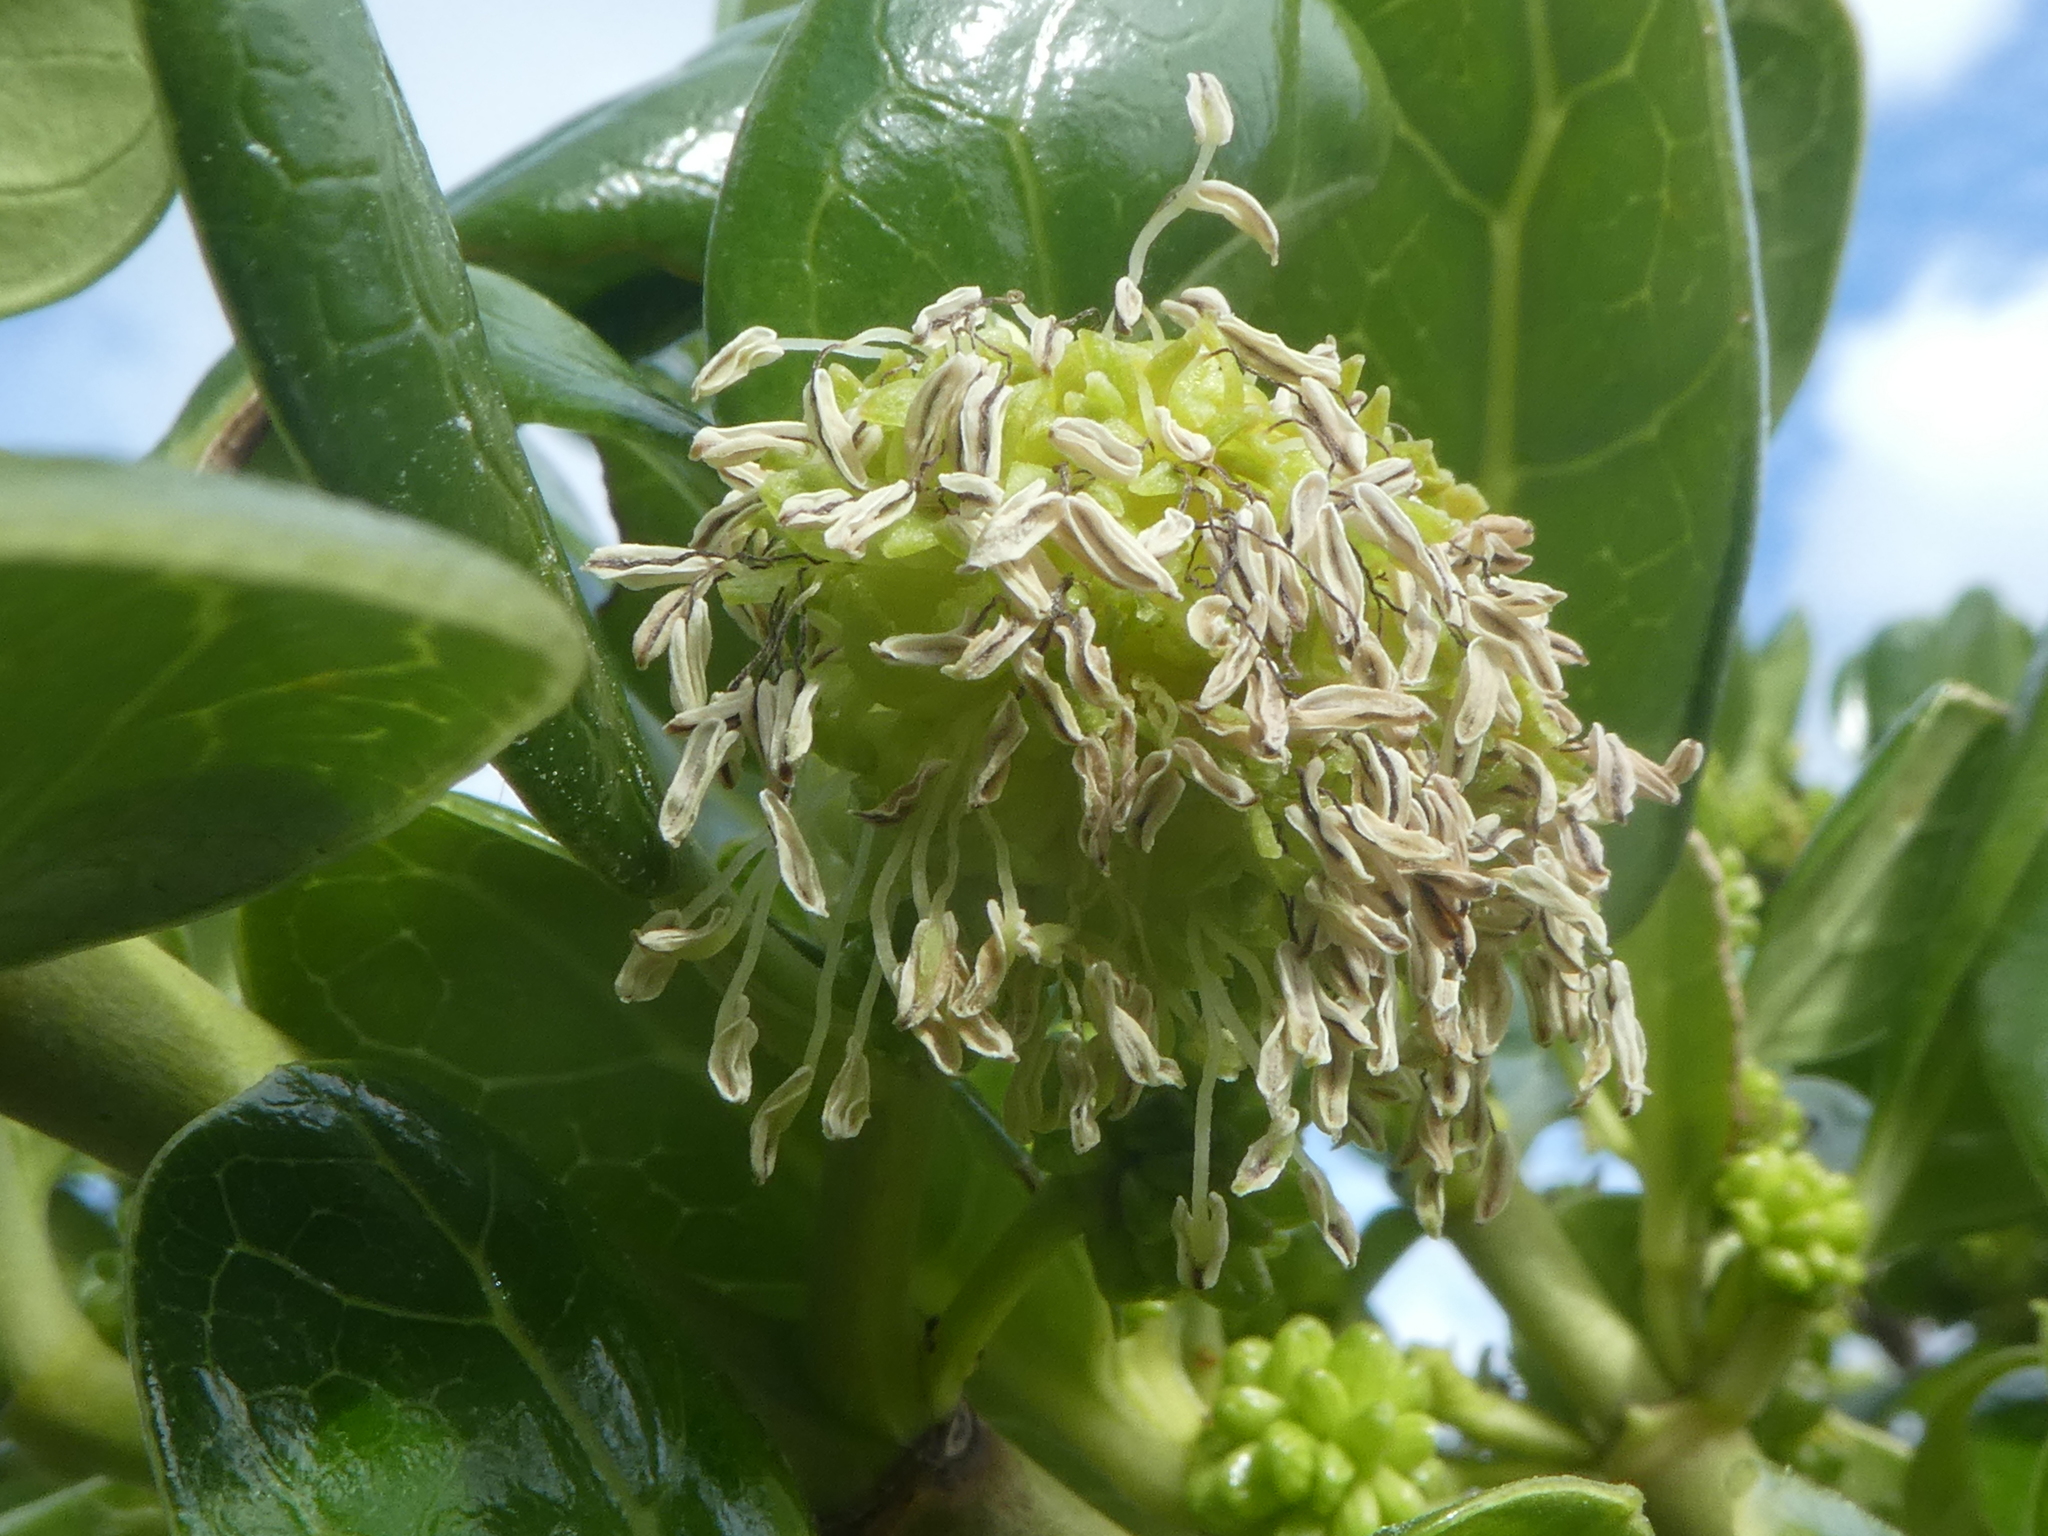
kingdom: Plantae
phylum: Tracheophyta
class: Magnoliopsida
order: Gentianales
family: Rubiaceae
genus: Coprosma
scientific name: Coprosma repens
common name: Tree bedstraw
